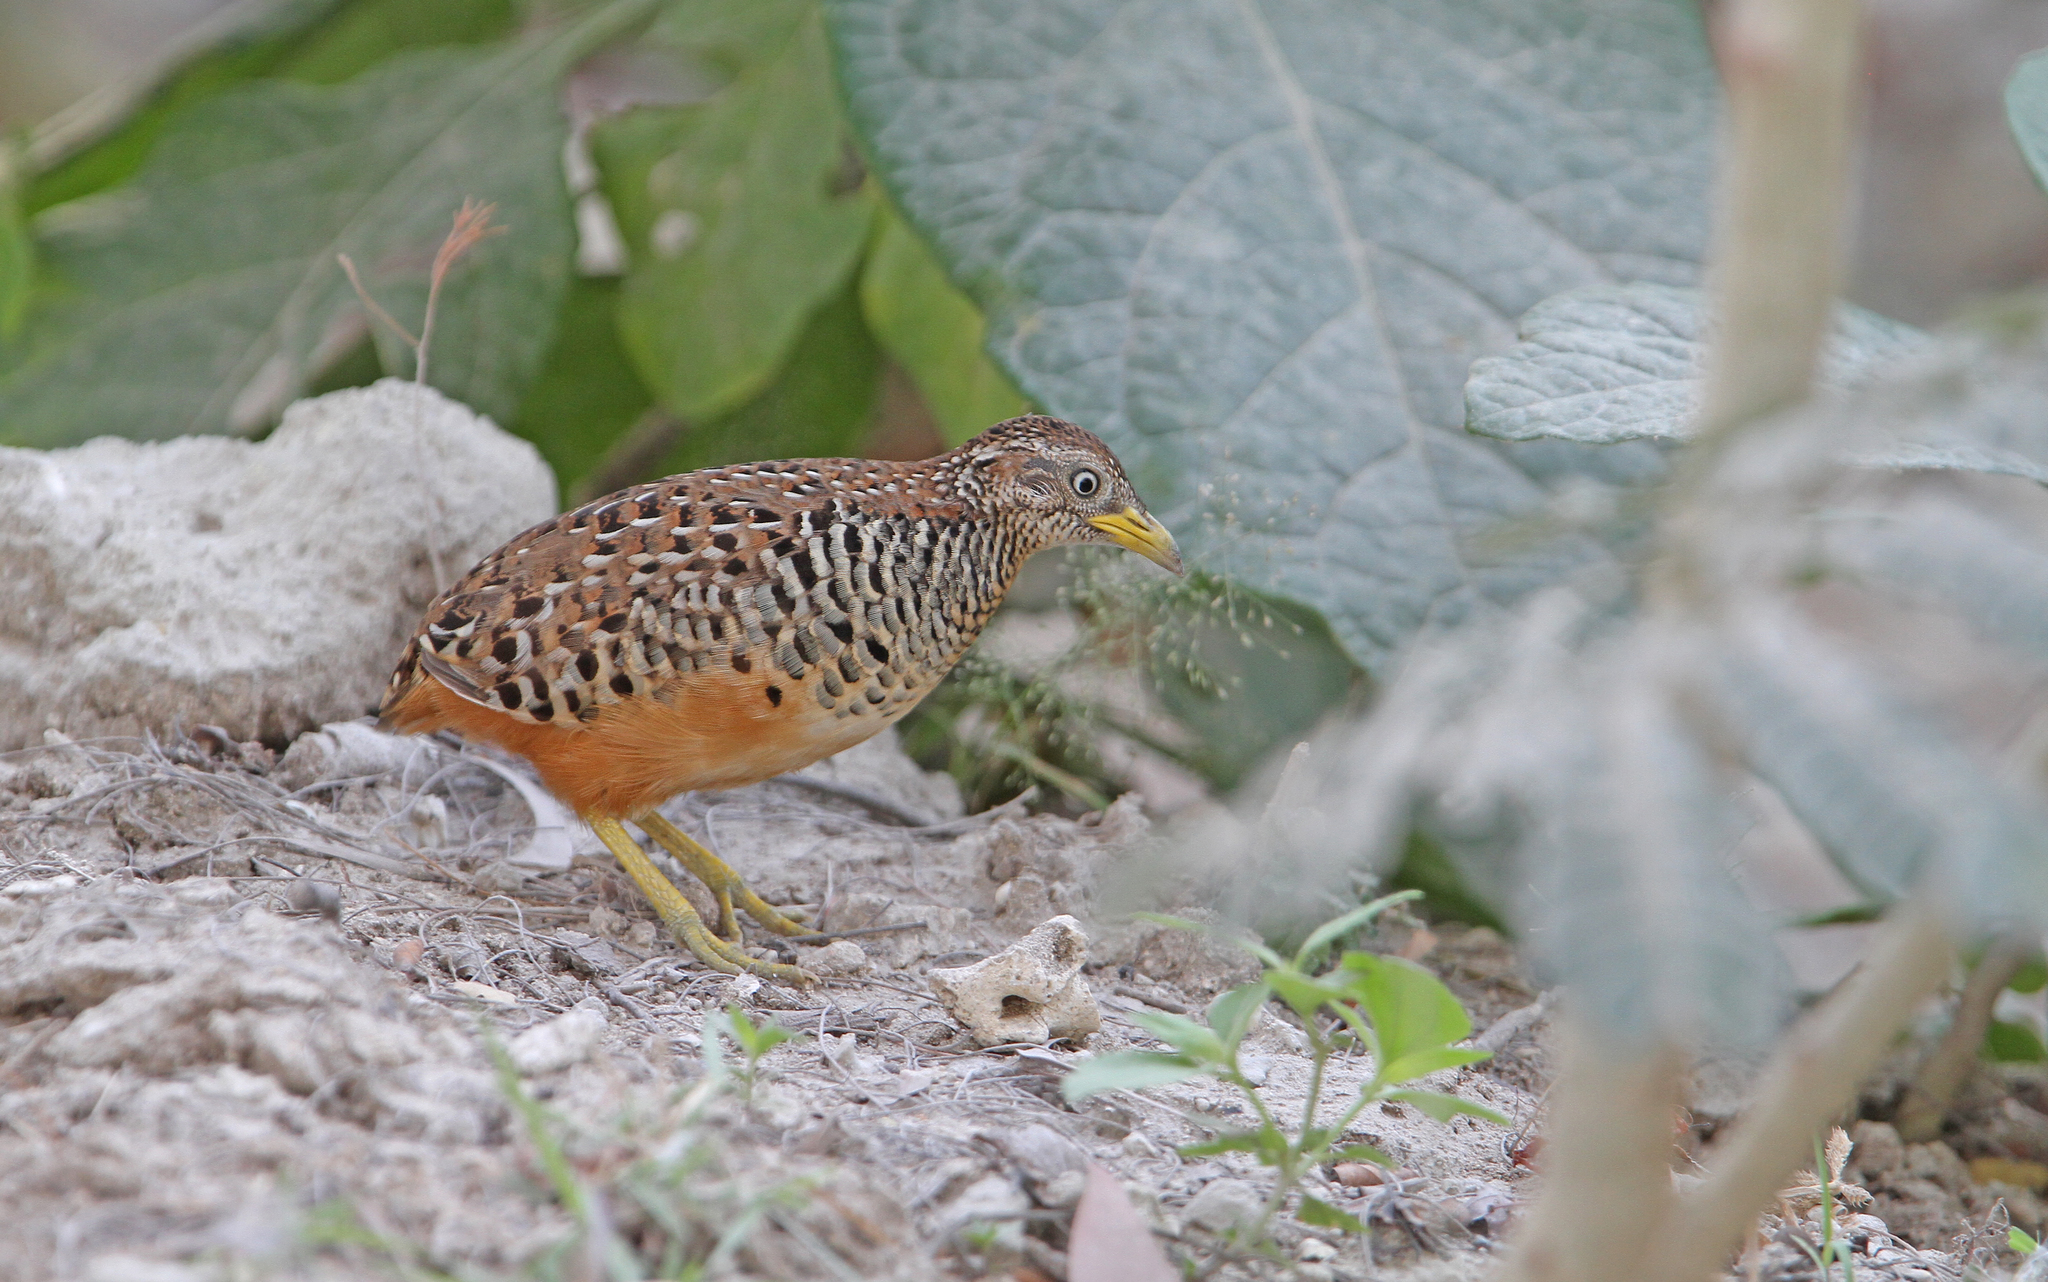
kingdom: Animalia
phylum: Chordata
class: Aves
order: Charadriiformes
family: Turnicidae
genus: Turnix
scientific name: Turnix suscitator
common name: Barred buttonquail
